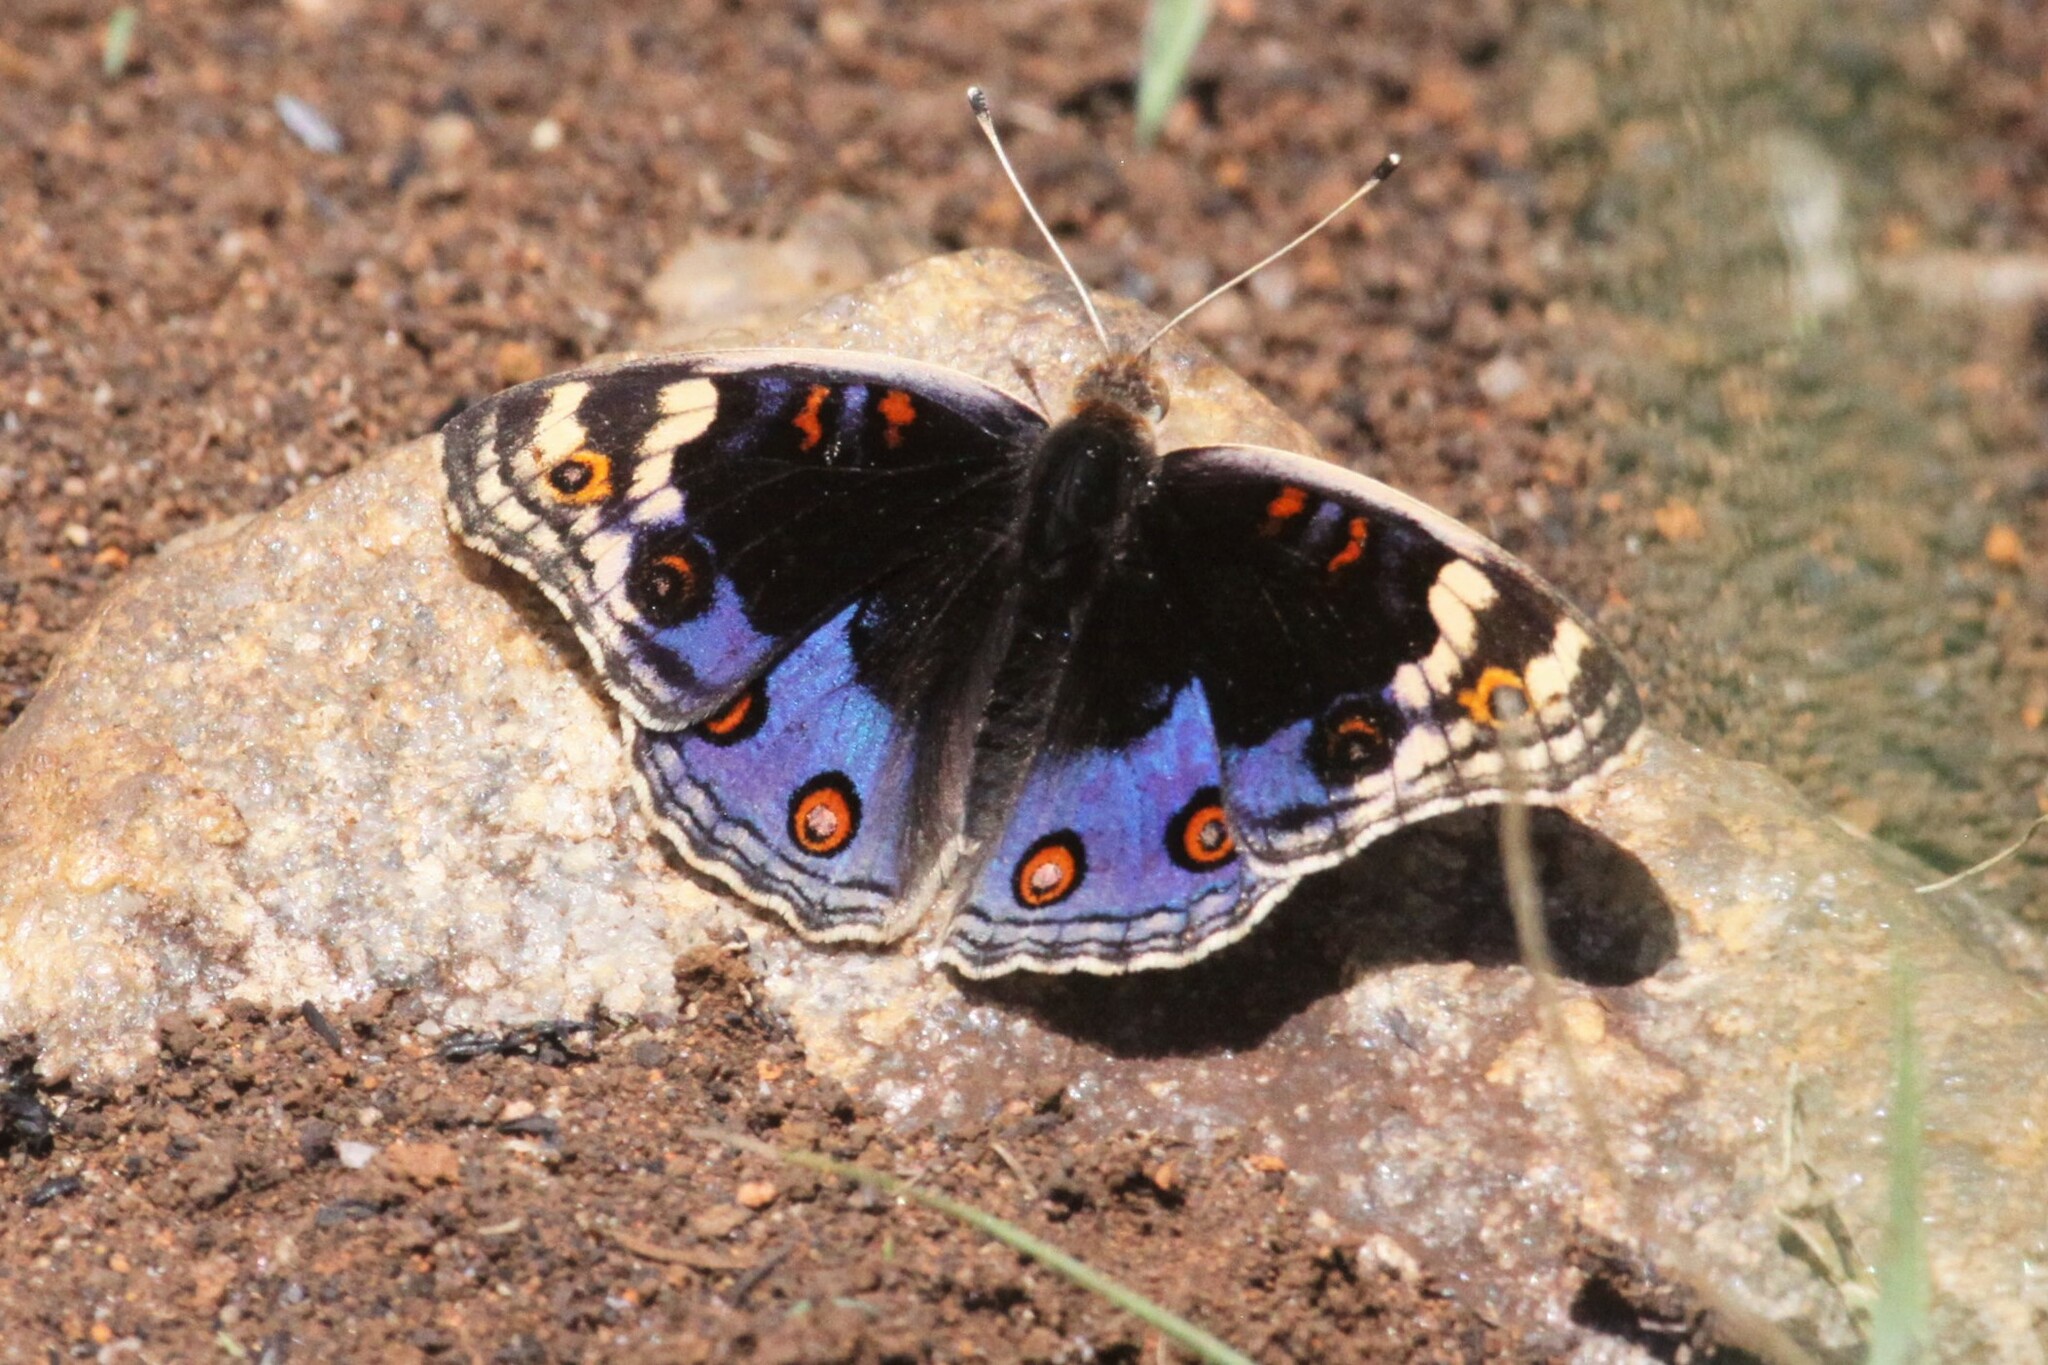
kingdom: Animalia
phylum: Arthropoda
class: Insecta
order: Lepidoptera
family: Nymphalidae
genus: Junonia
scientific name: Junonia orithya
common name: Blue pansy
